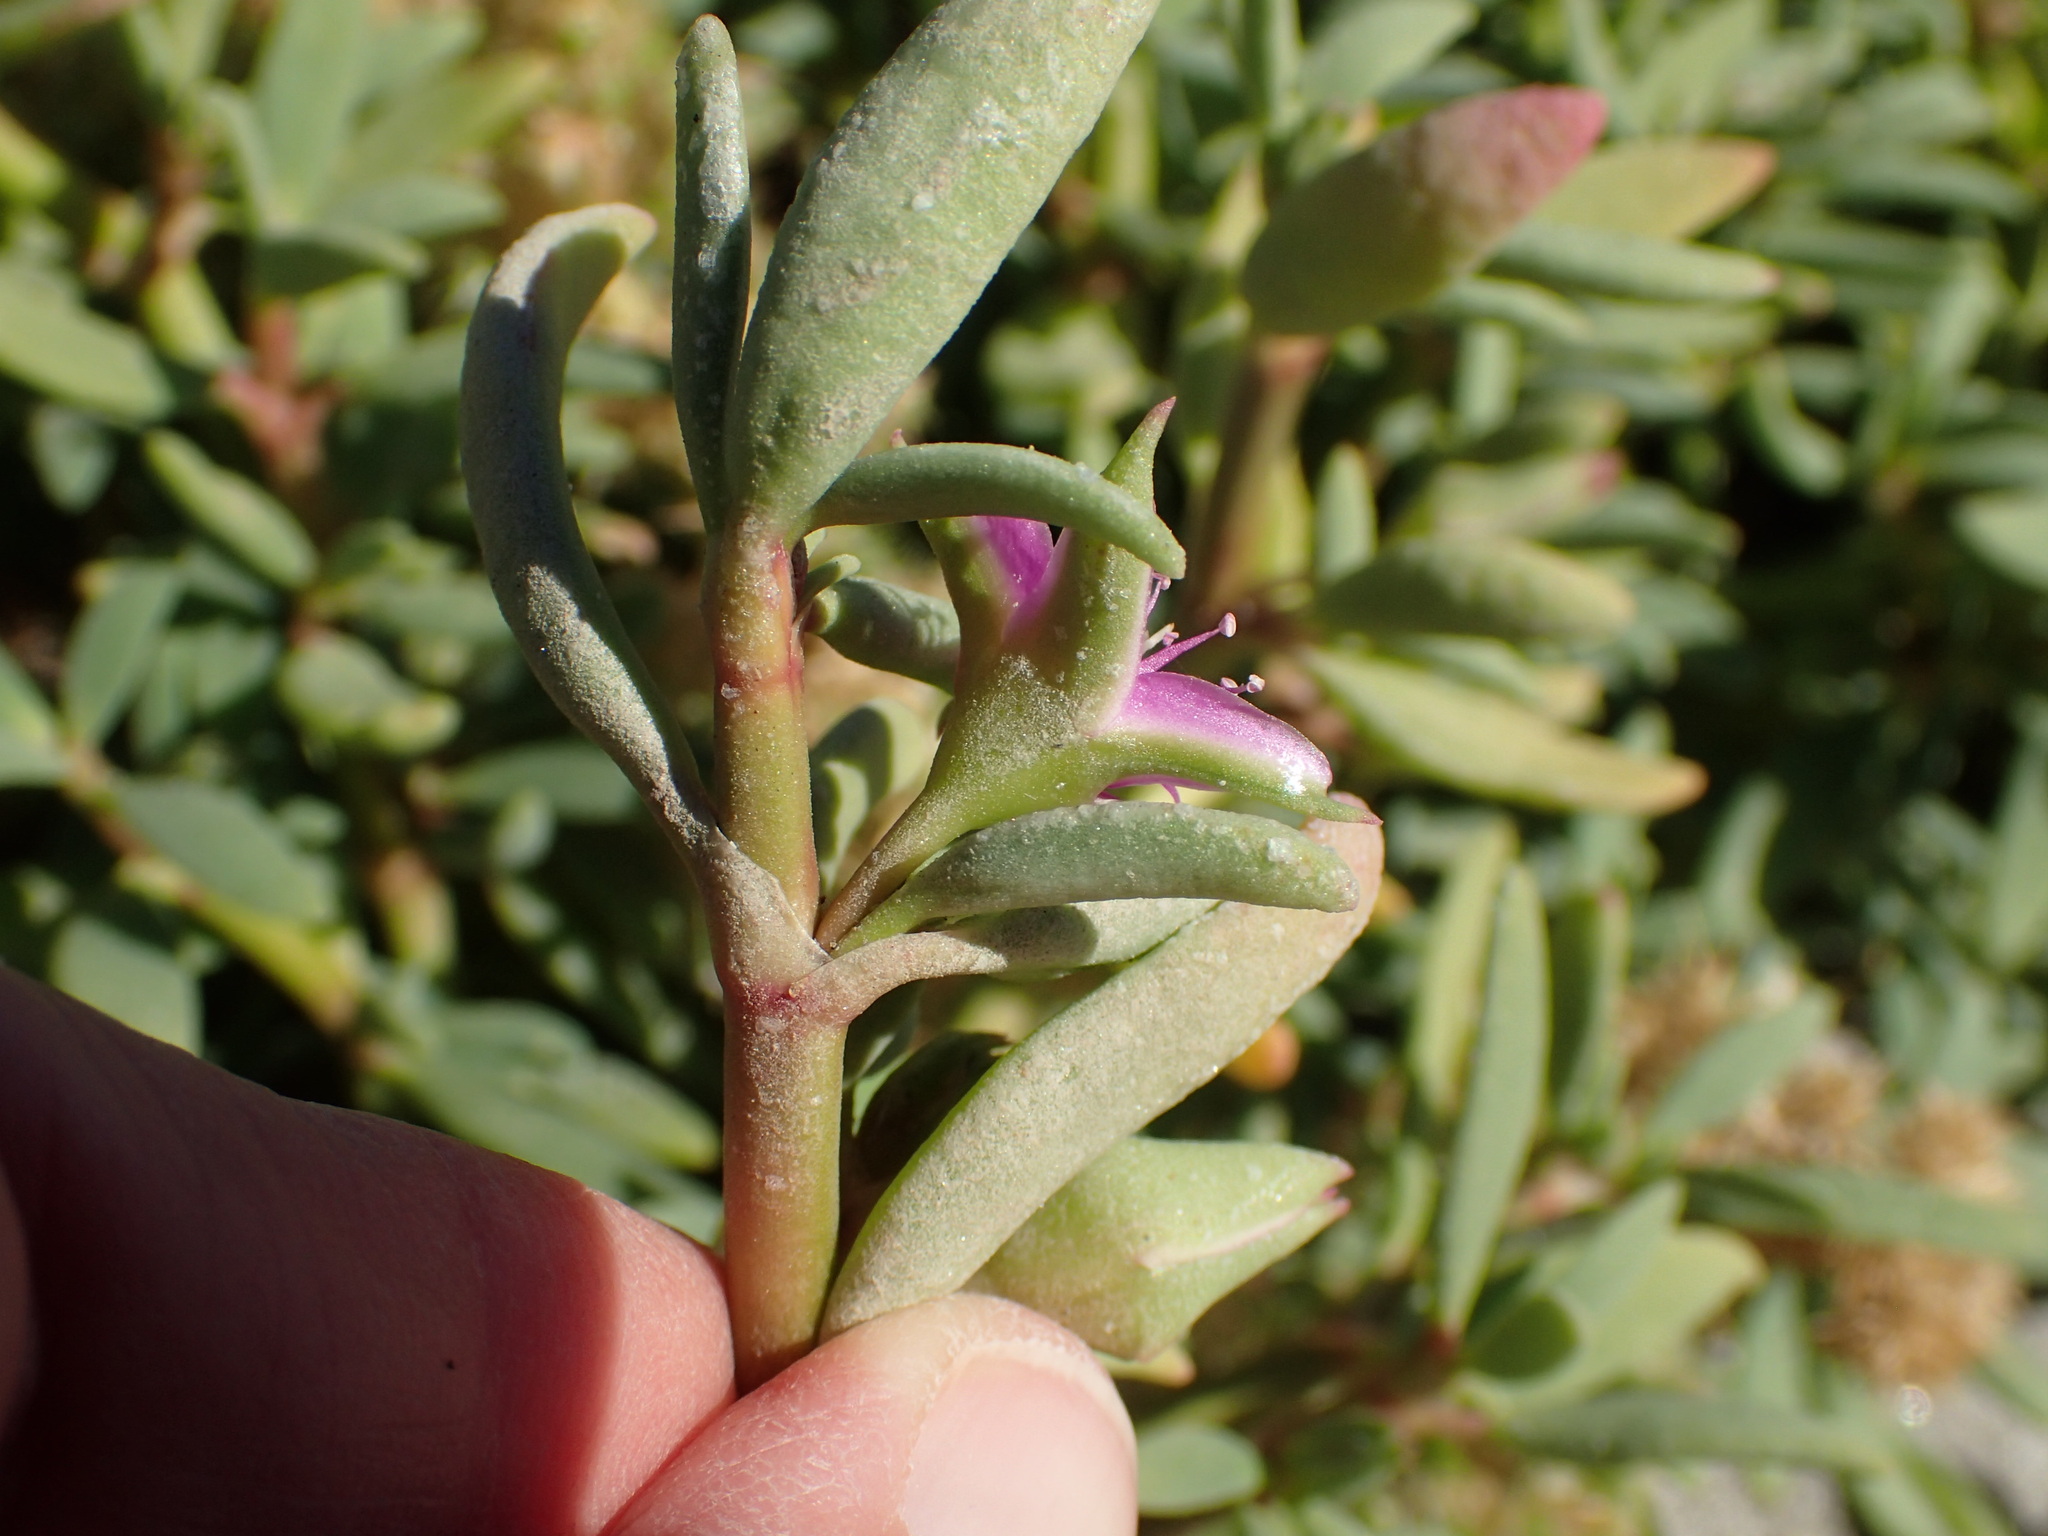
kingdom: Plantae
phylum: Tracheophyta
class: Magnoliopsida
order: Caryophyllales
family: Aizoaceae
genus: Sesuvium
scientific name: Sesuvium portulacastrum
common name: Sea-purslane
